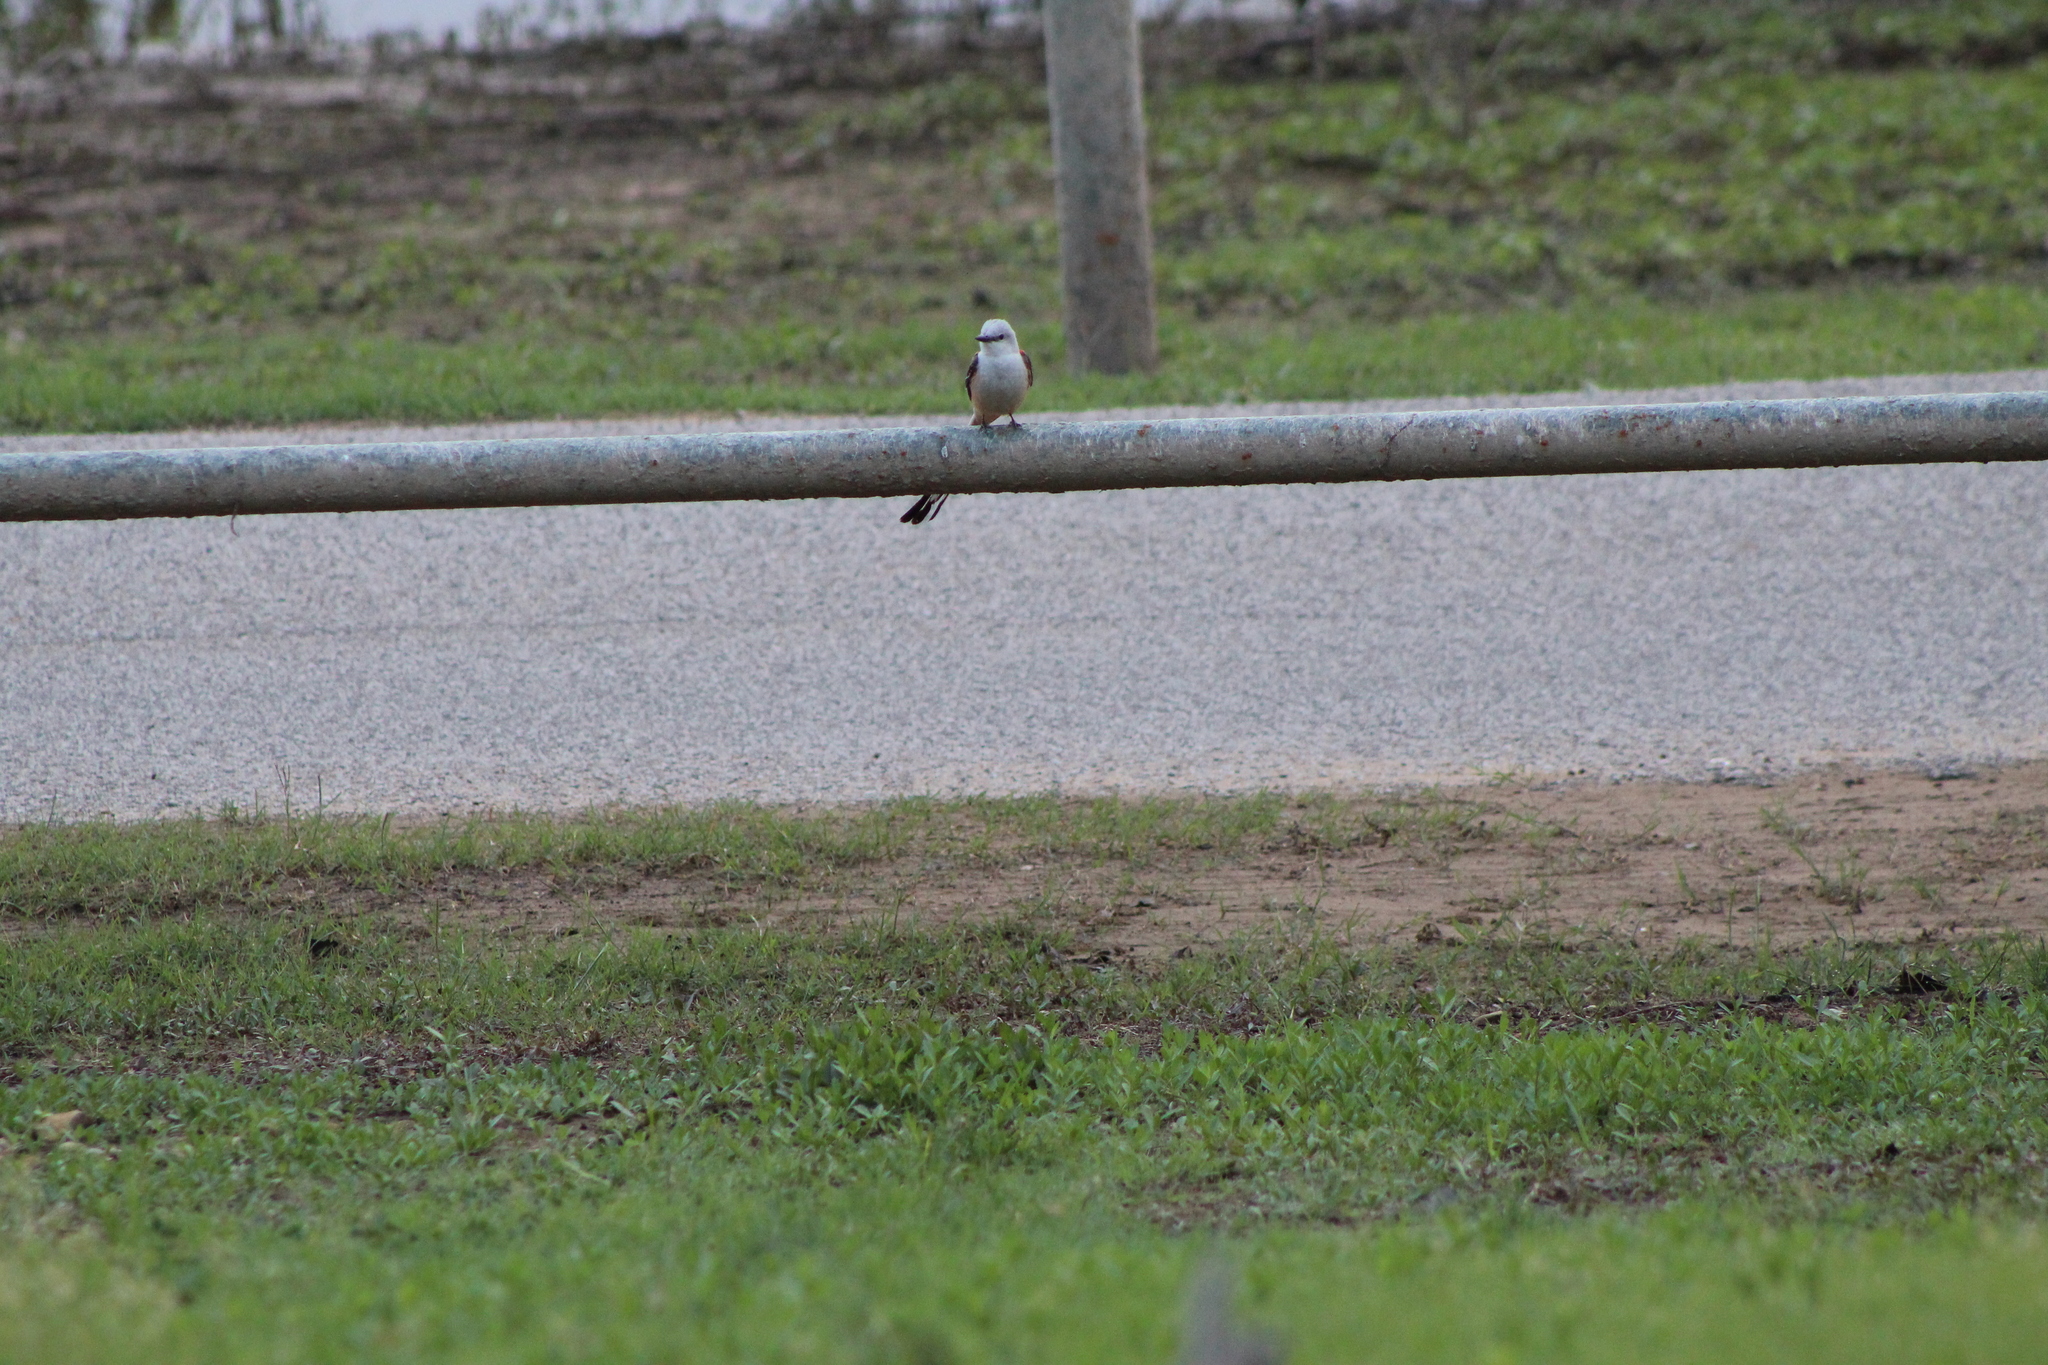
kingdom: Animalia
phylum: Chordata
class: Aves
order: Passeriformes
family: Tyrannidae
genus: Tyrannus
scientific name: Tyrannus forficatus
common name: Scissor-tailed flycatcher
